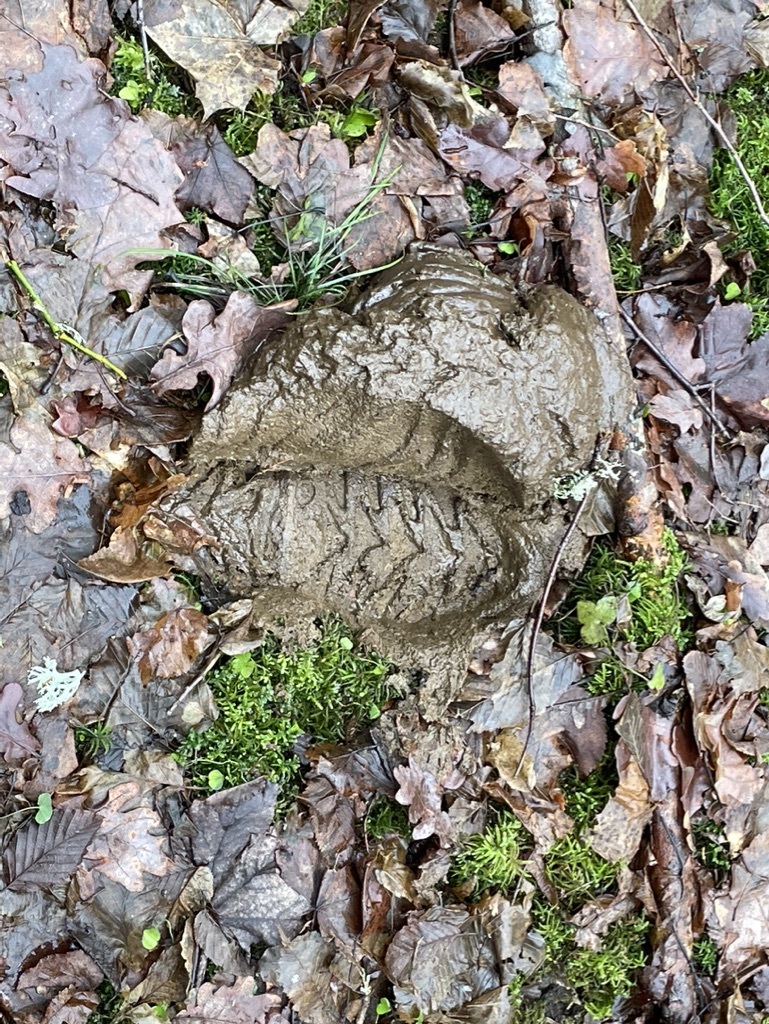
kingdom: Animalia
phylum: Chordata
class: Mammalia
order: Artiodactyla
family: Bovidae
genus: Bison
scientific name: Bison bonasus
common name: European bison
